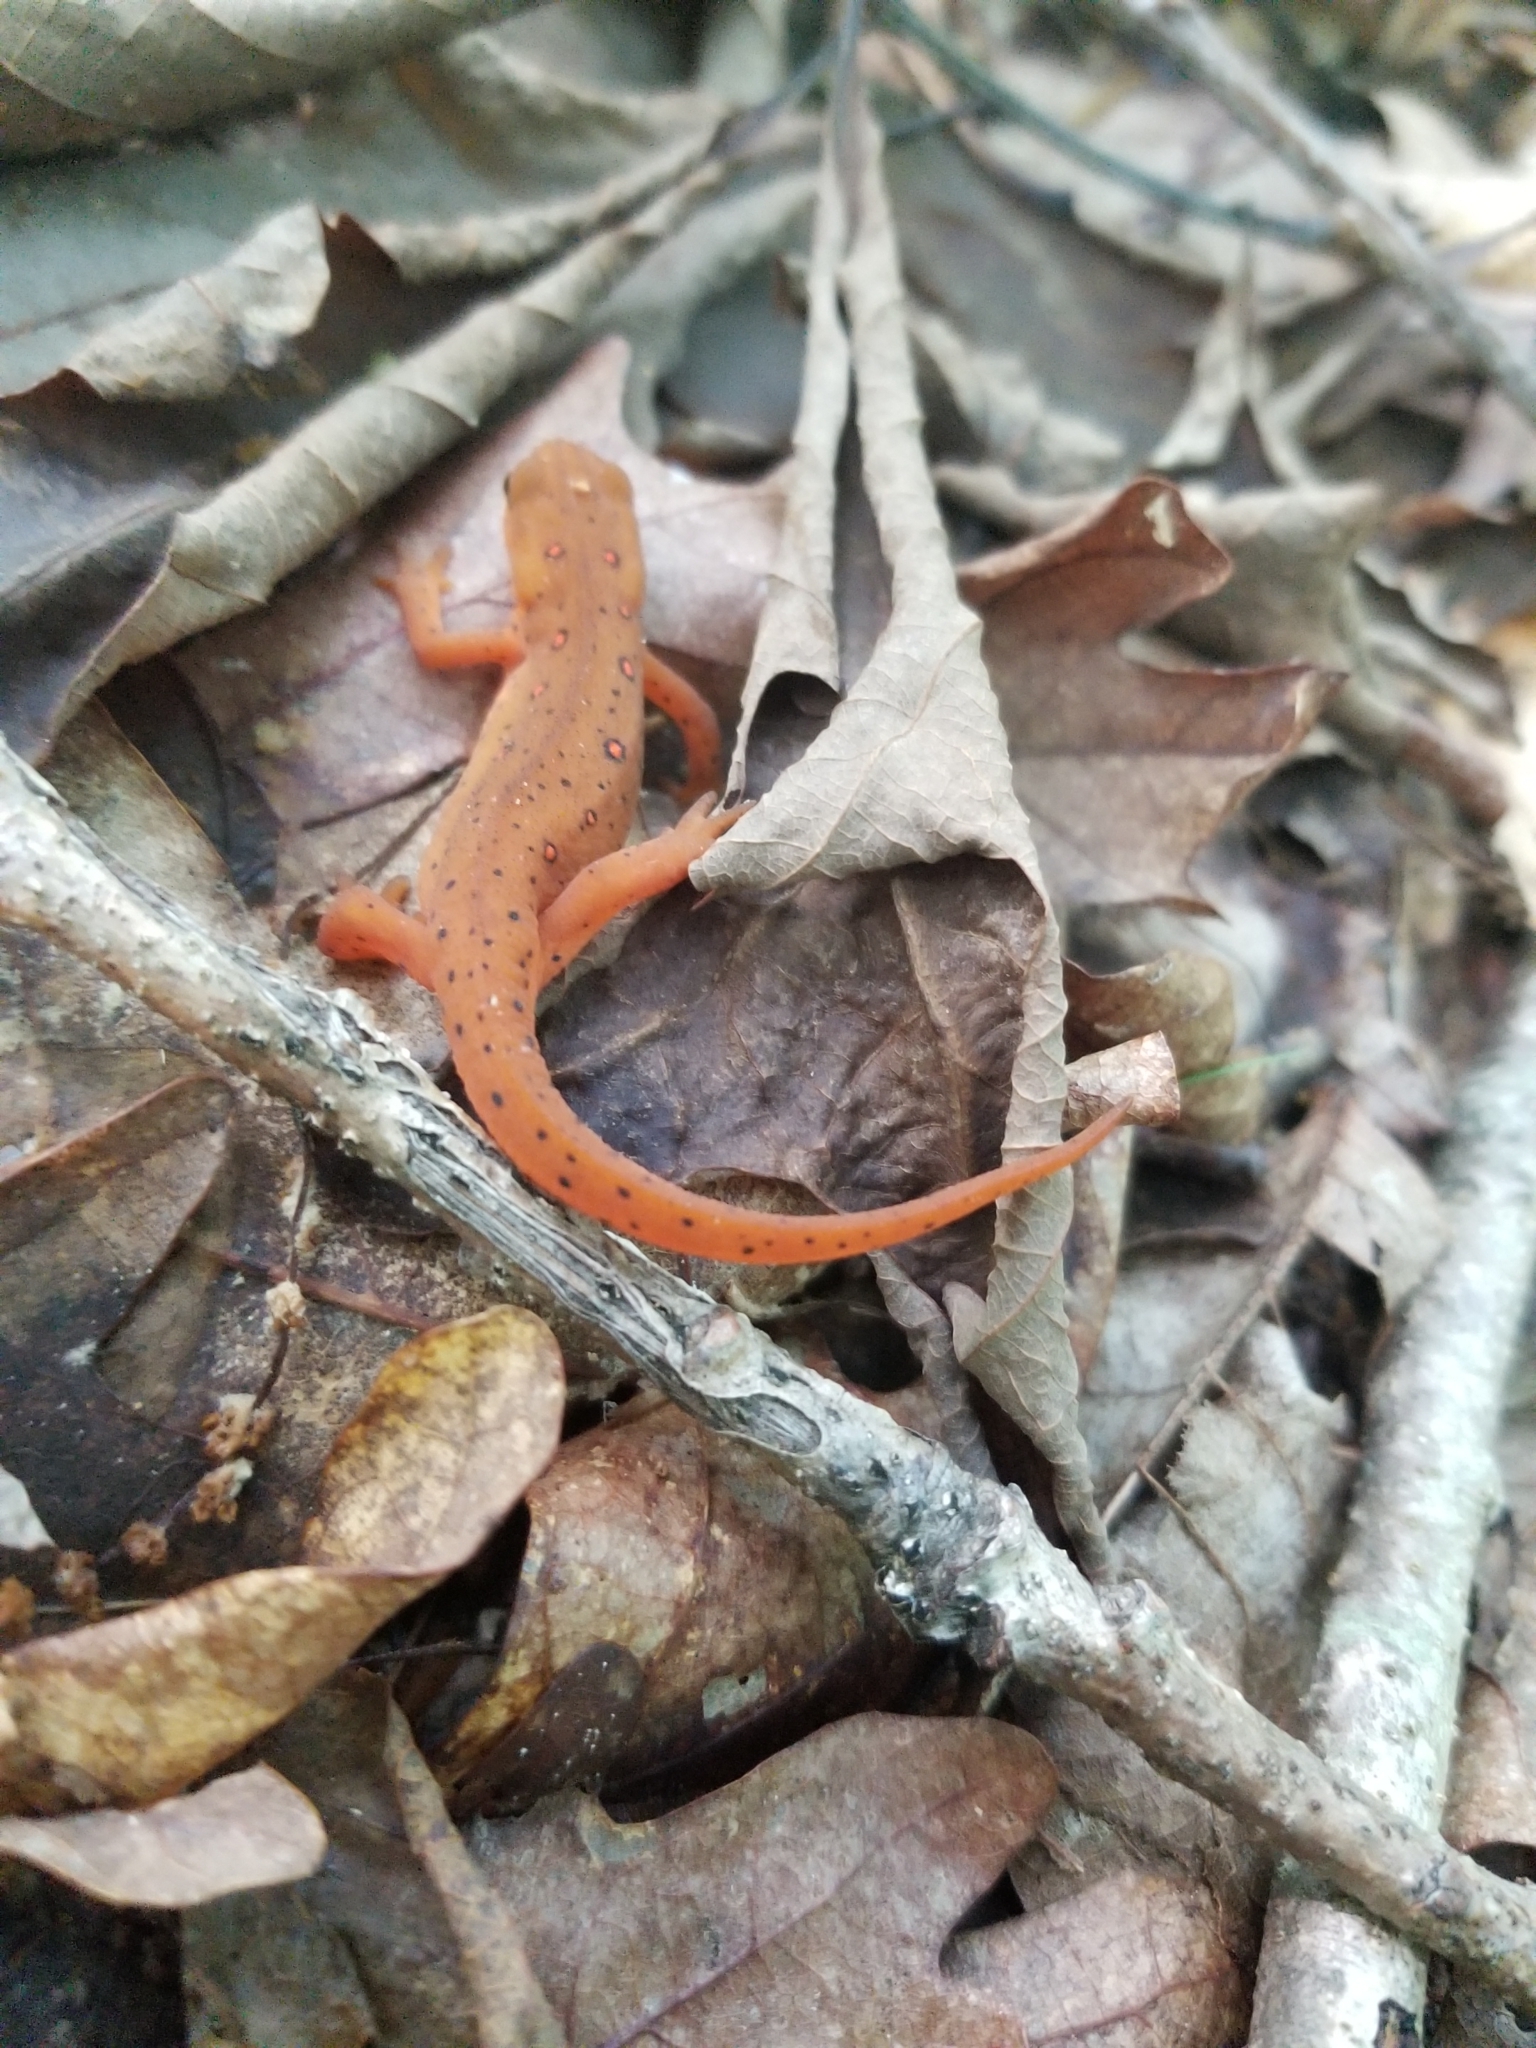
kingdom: Animalia
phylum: Chordata
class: Amphibia
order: Caudata
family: Salamandridae
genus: Notophthalmus
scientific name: Notophthalmus viridescens
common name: Eastern newt
